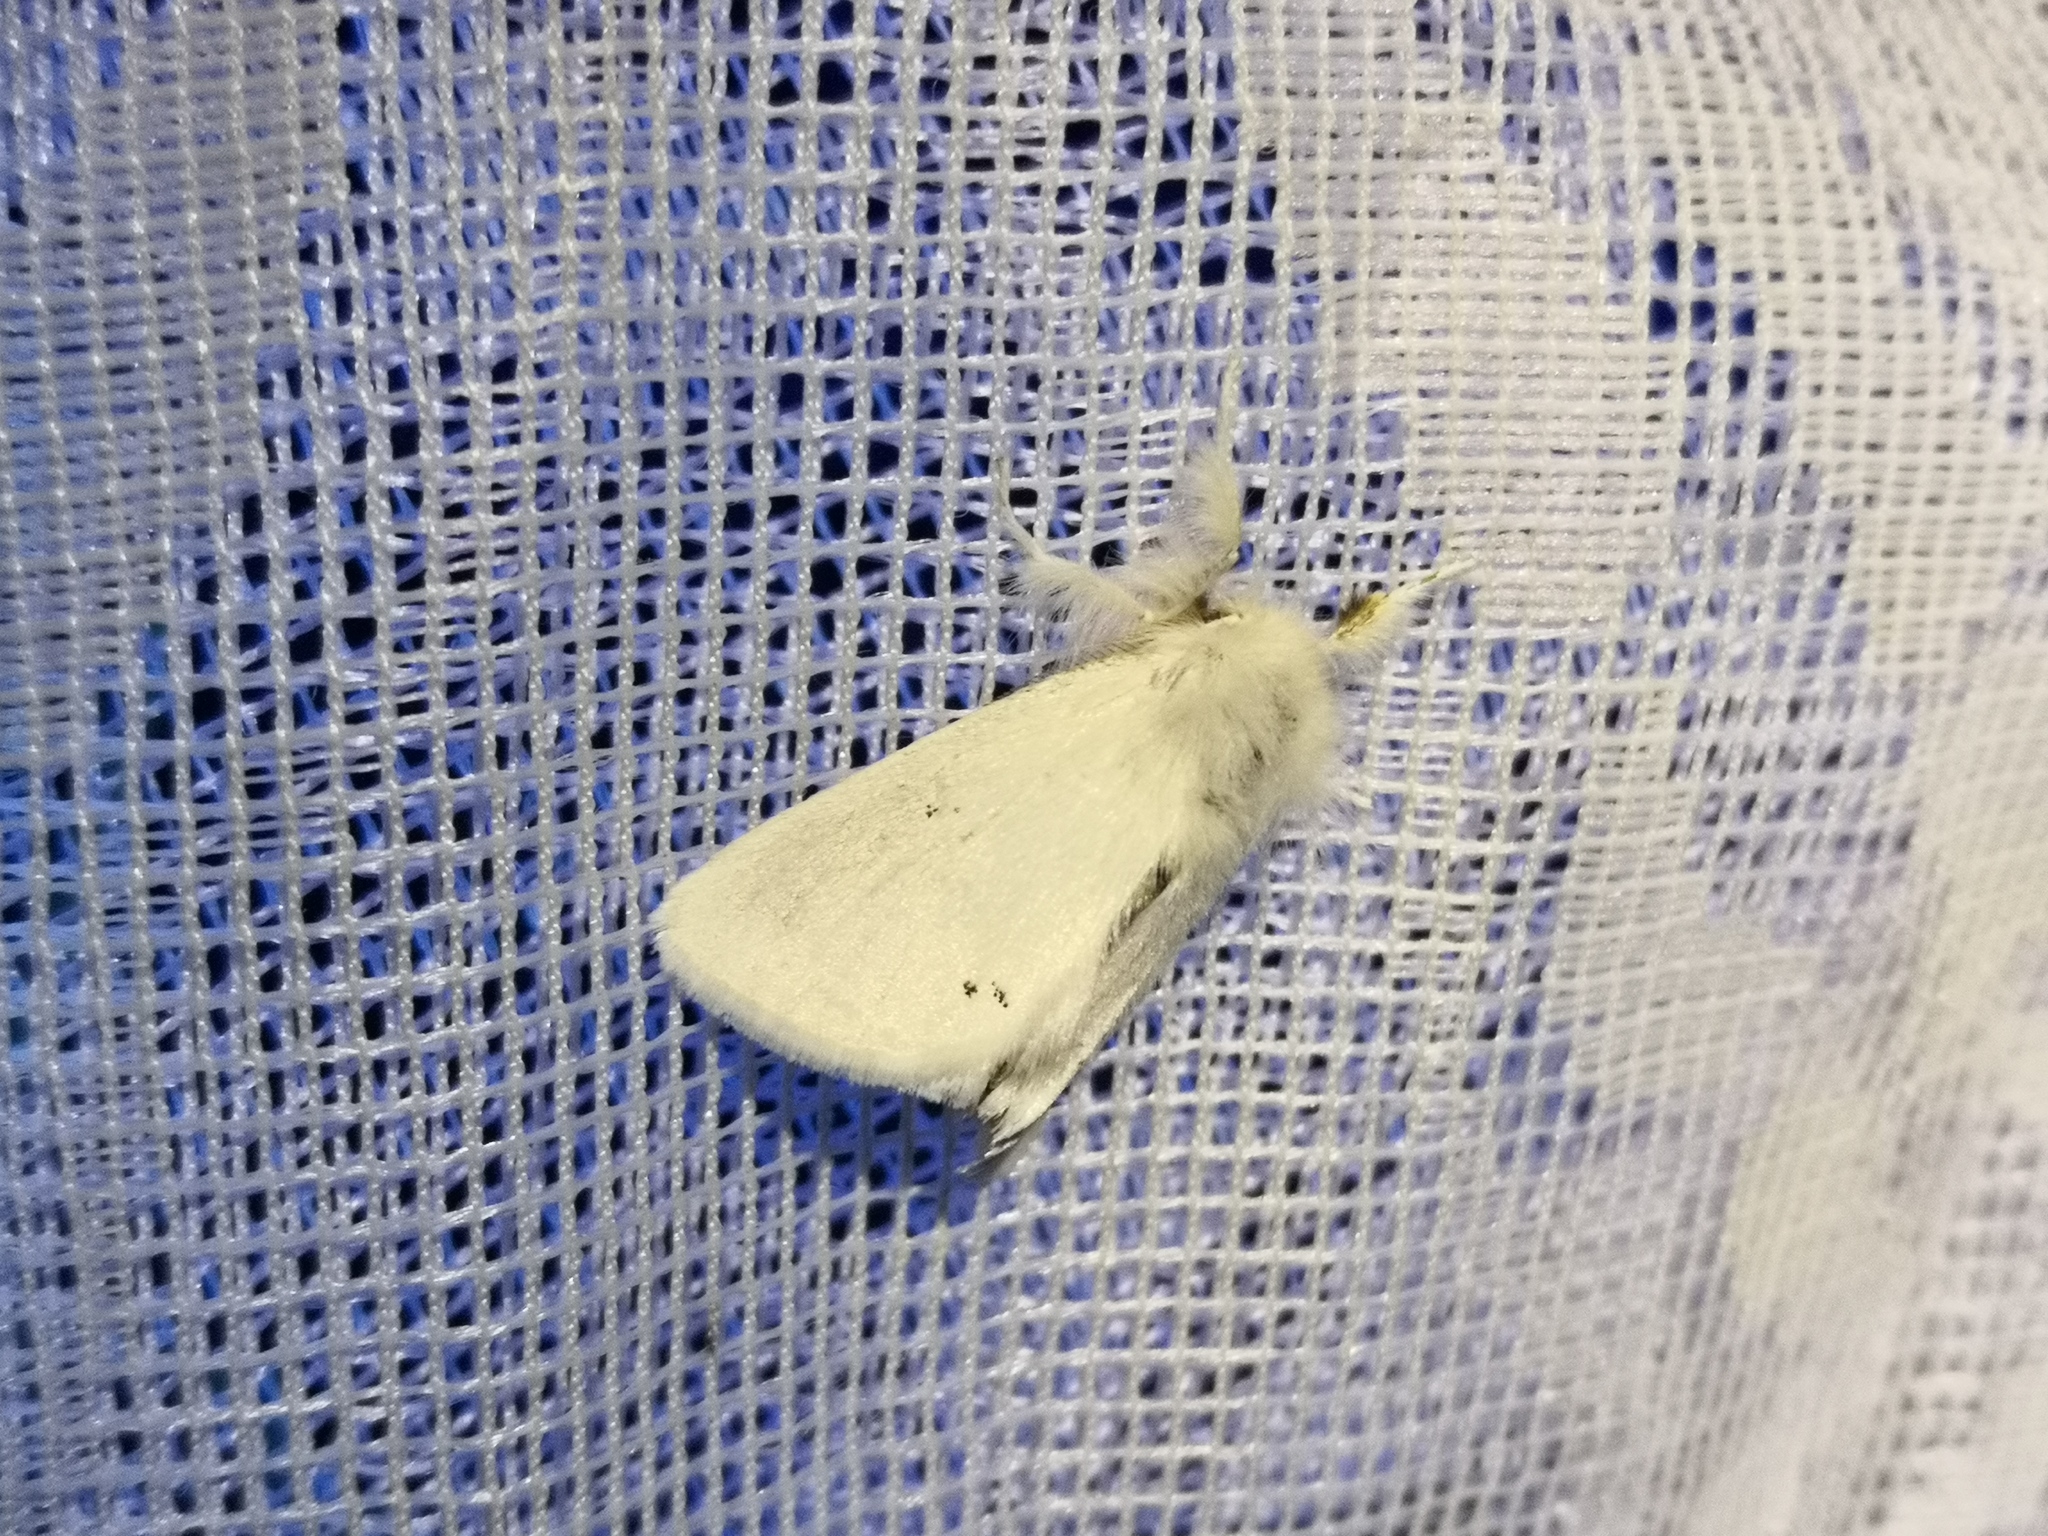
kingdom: Animalia
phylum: Arthropoda
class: Insecta
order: Lepidoptera
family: Erebidae
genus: Euproctis
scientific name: Euproctis chrysorrhoea
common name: Brown-tail
